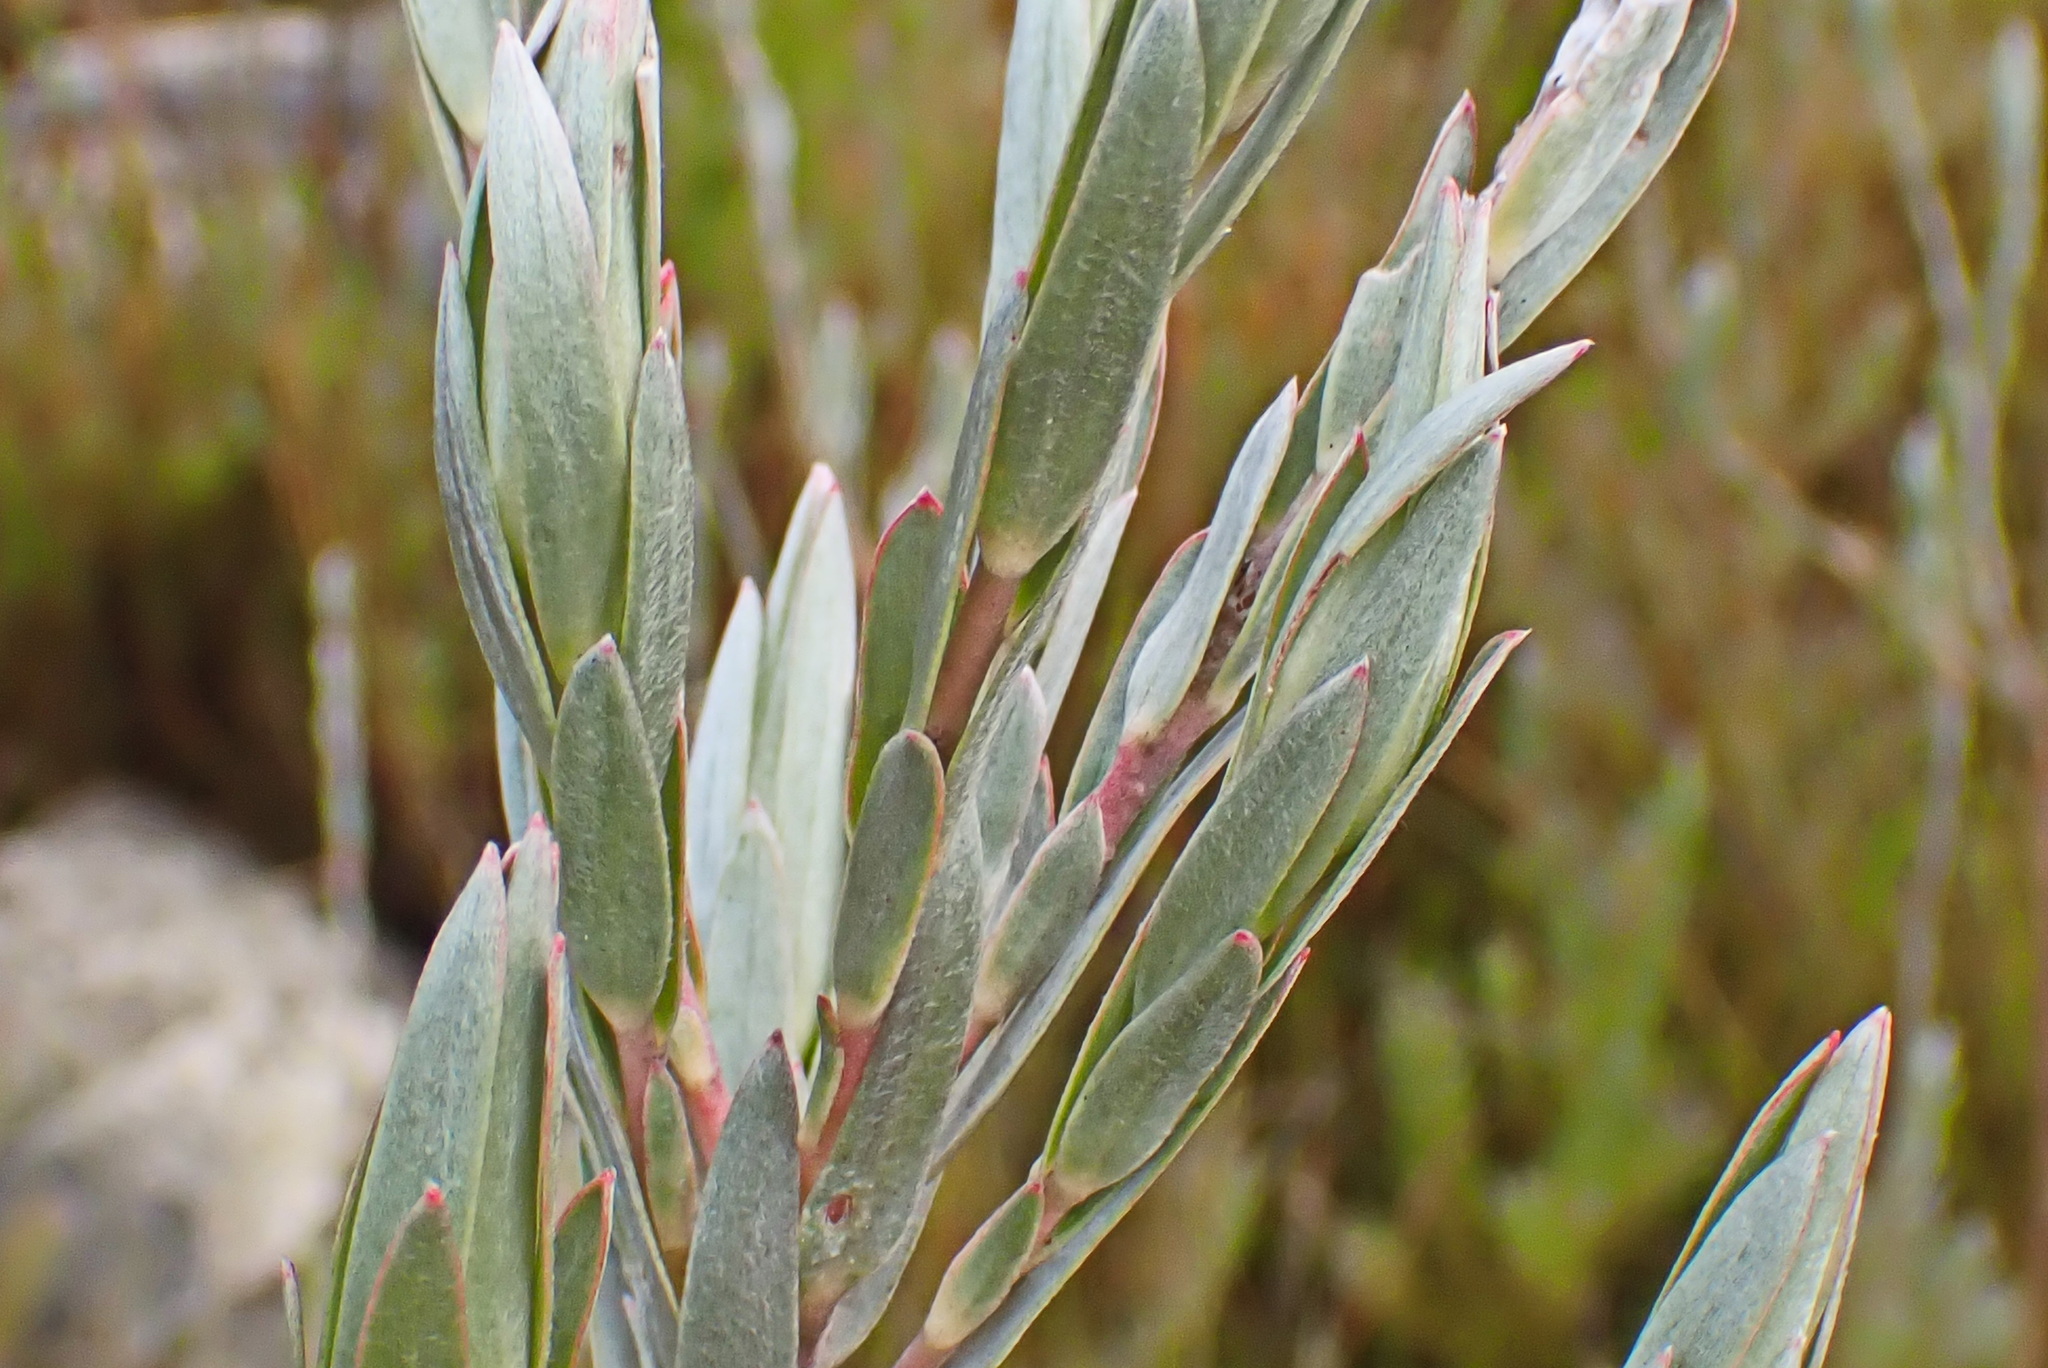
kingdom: Plantae
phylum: Tracheophyta
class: Magnoliopsida
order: Proteales
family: Proteaceae
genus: Leucadendron
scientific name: Leucadendron uliginosum
